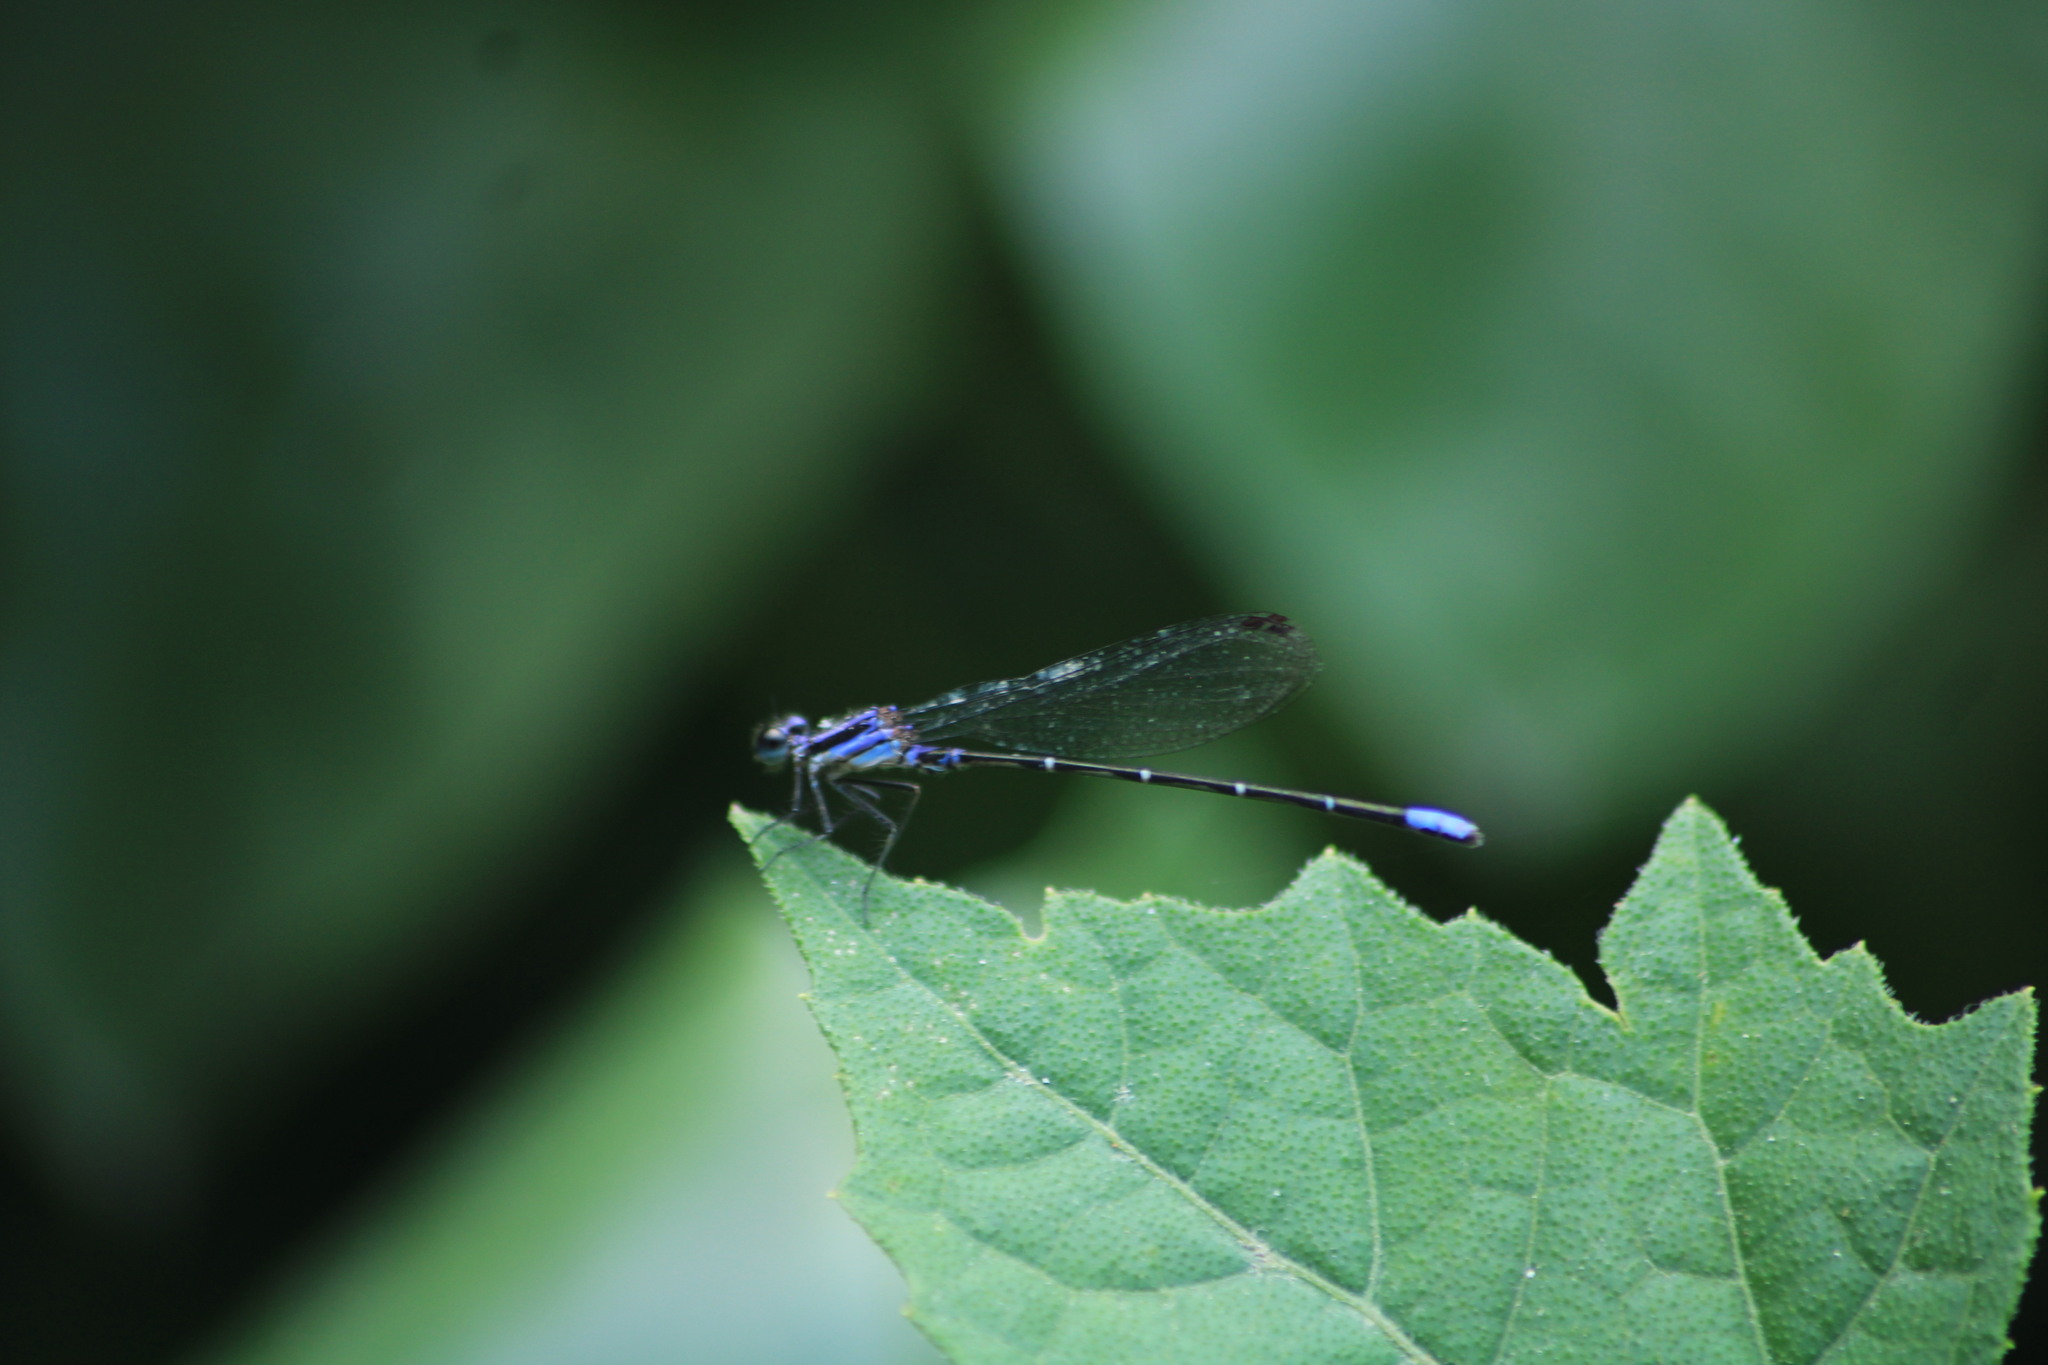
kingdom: Animalia
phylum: Arthropoda
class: Insecta
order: Odonata
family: Coenagrionidae
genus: Argia
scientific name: Argia pulla
